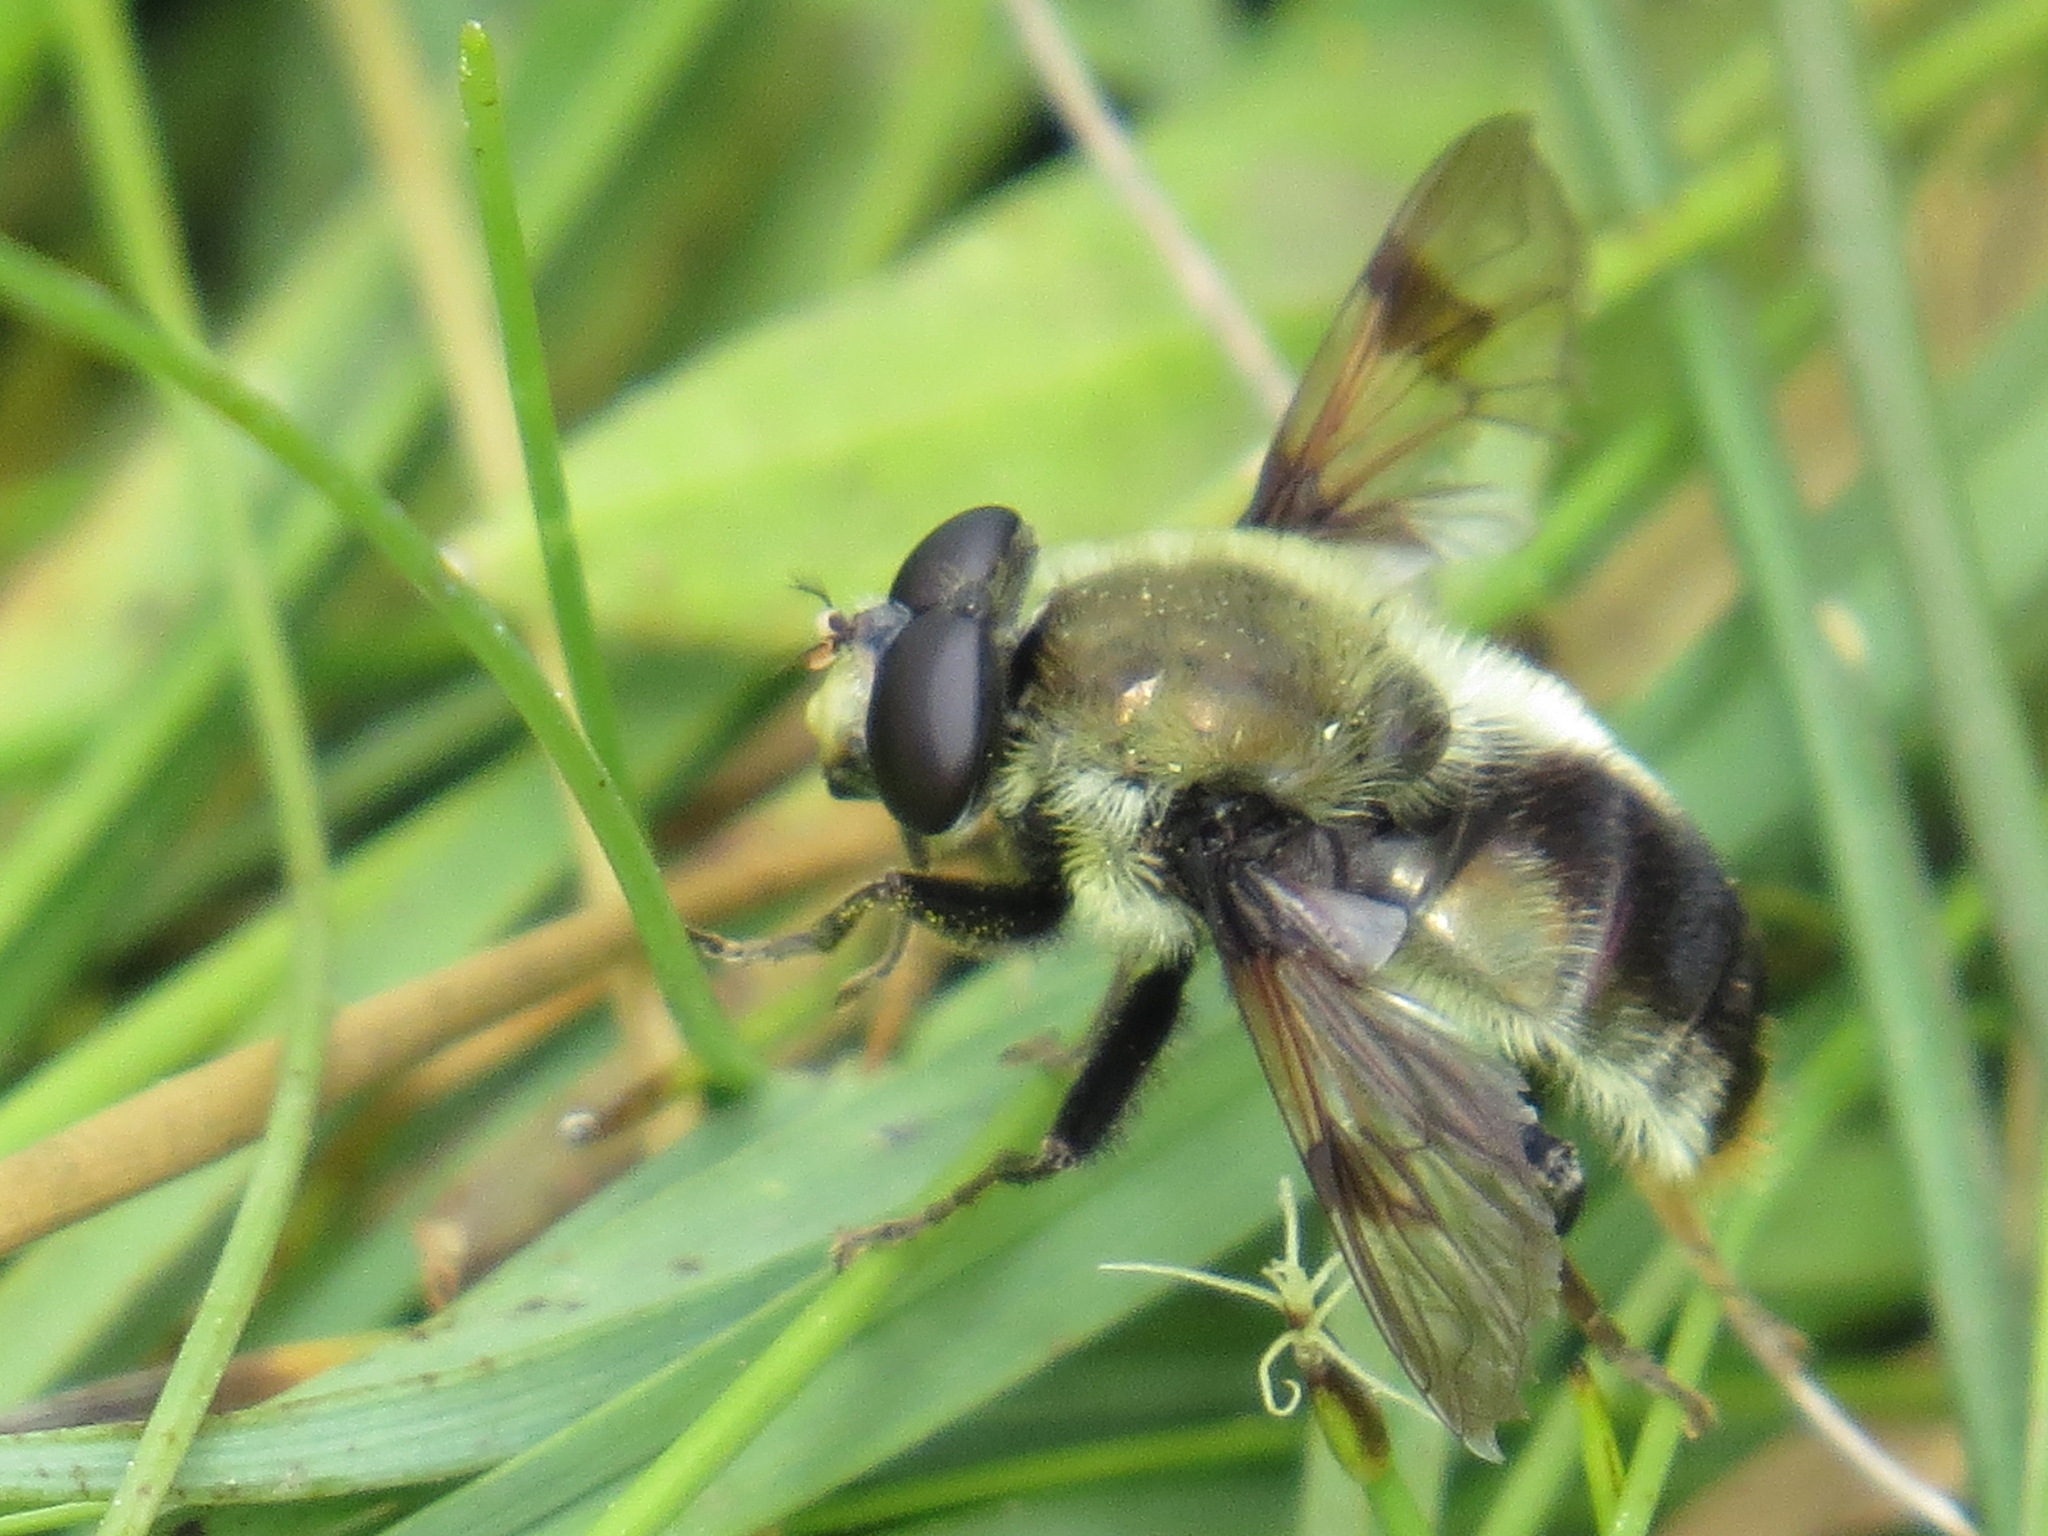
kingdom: Animalia
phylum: Arthropoda
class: Insecta
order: Diptera
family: Syrphidae
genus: Sericomyia
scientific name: Sericomyia flagrans
